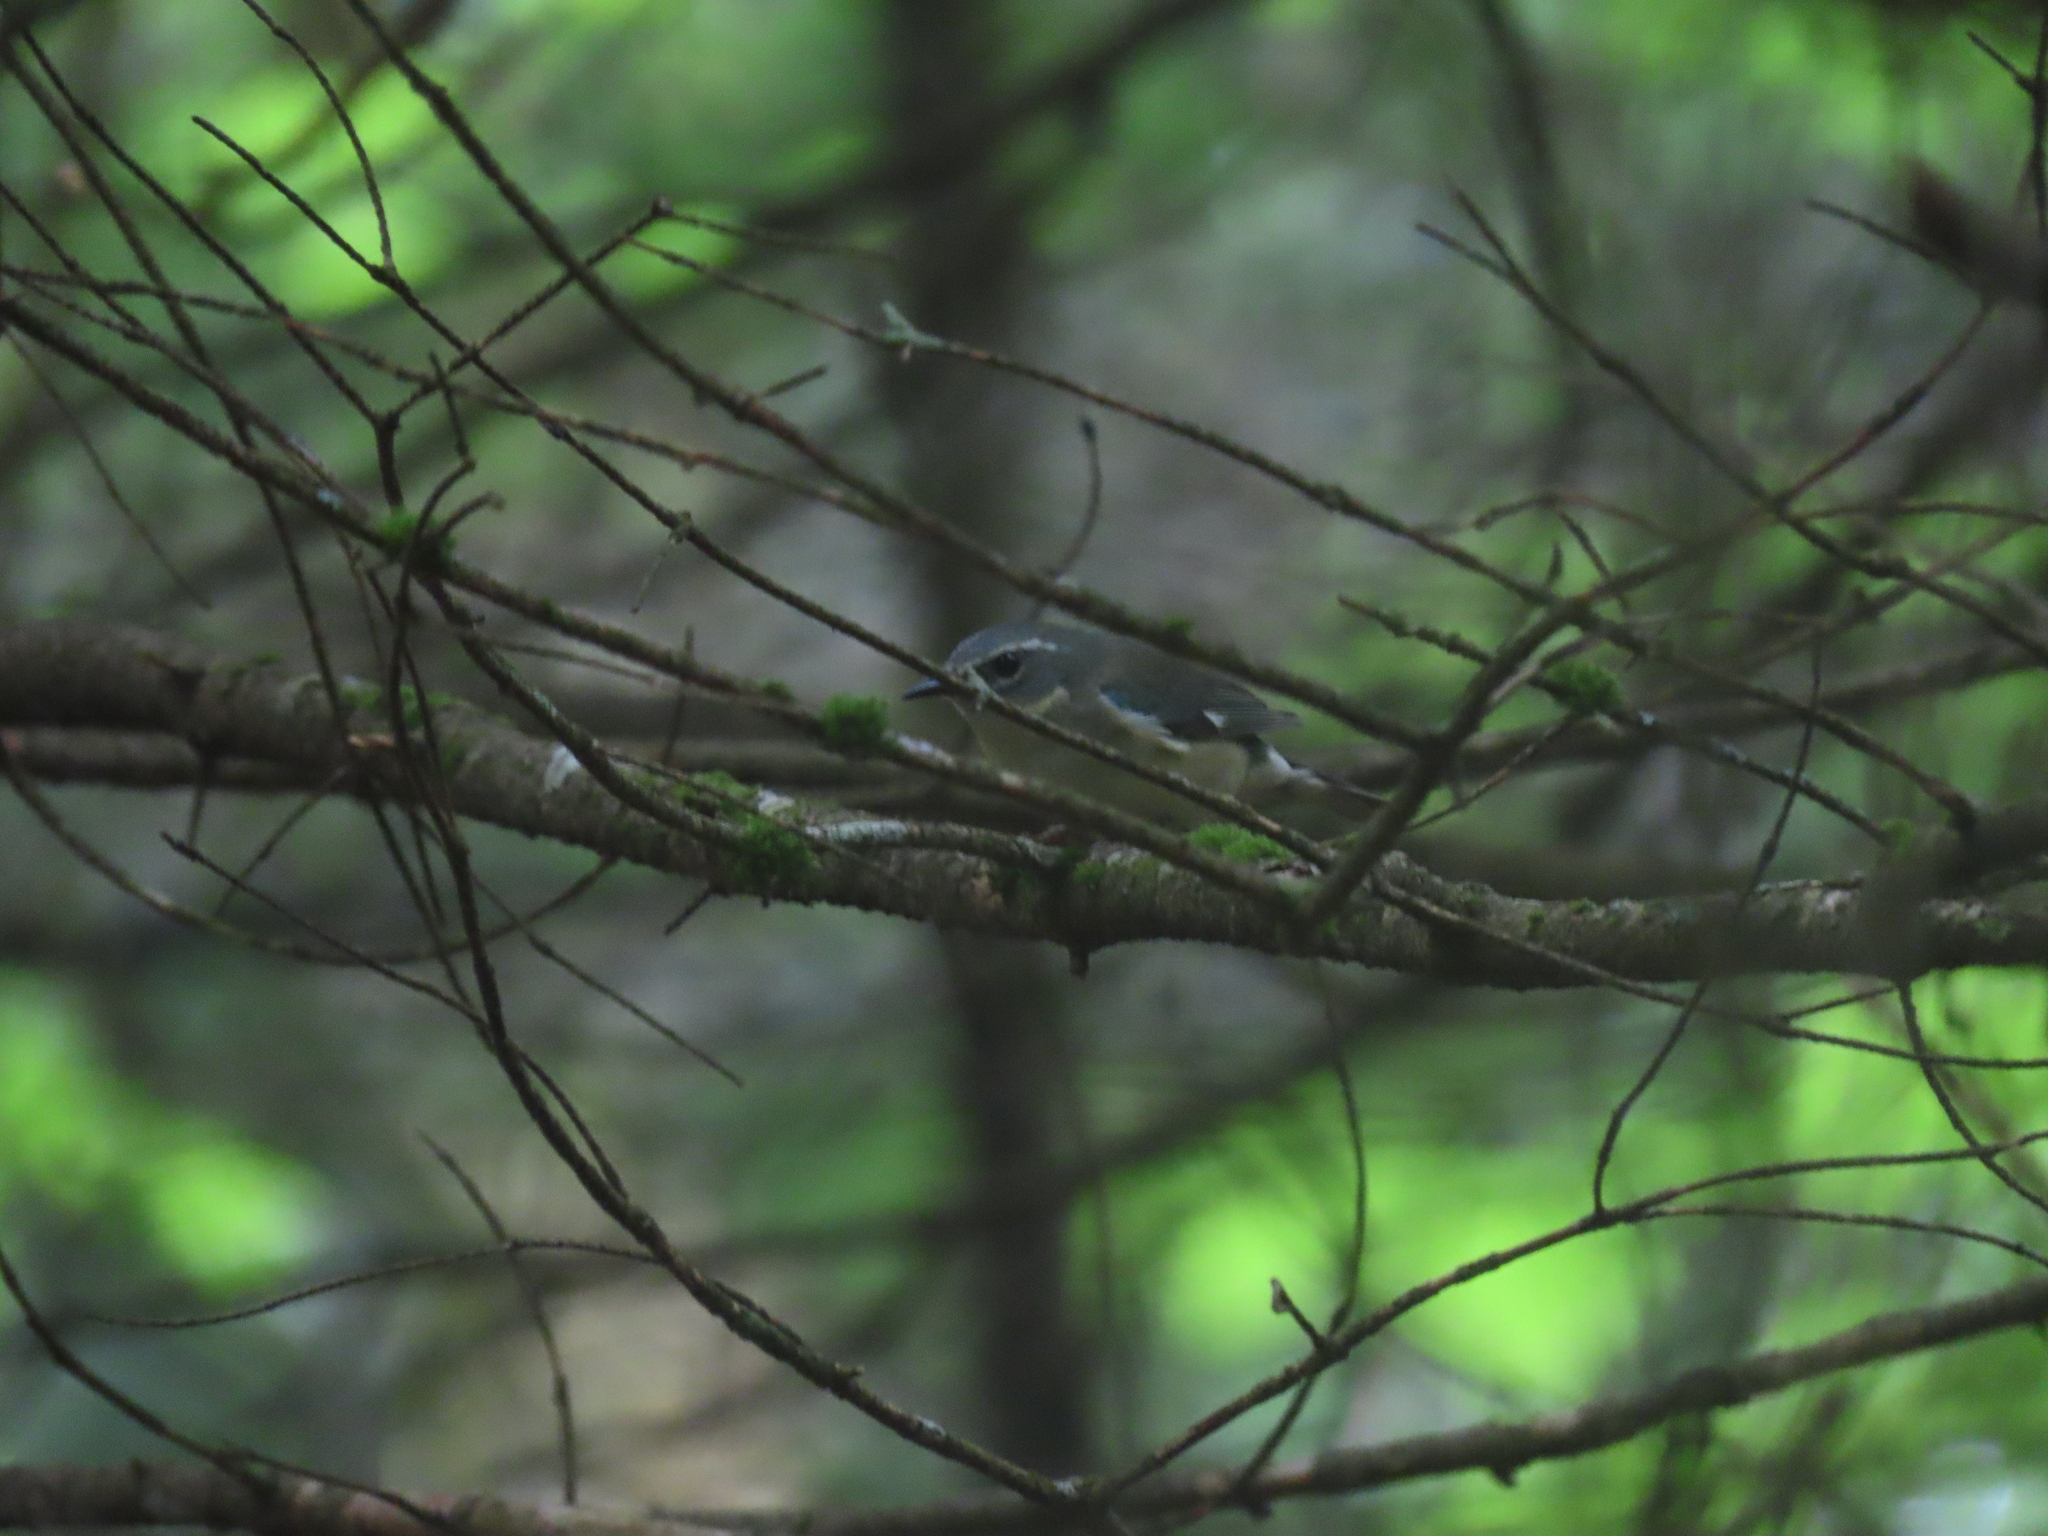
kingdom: Animalia
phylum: Chordata
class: Aves
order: Passeriformes
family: Parulidae
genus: Setophaga
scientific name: Setophaga fusca
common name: Blackburnian warbler
